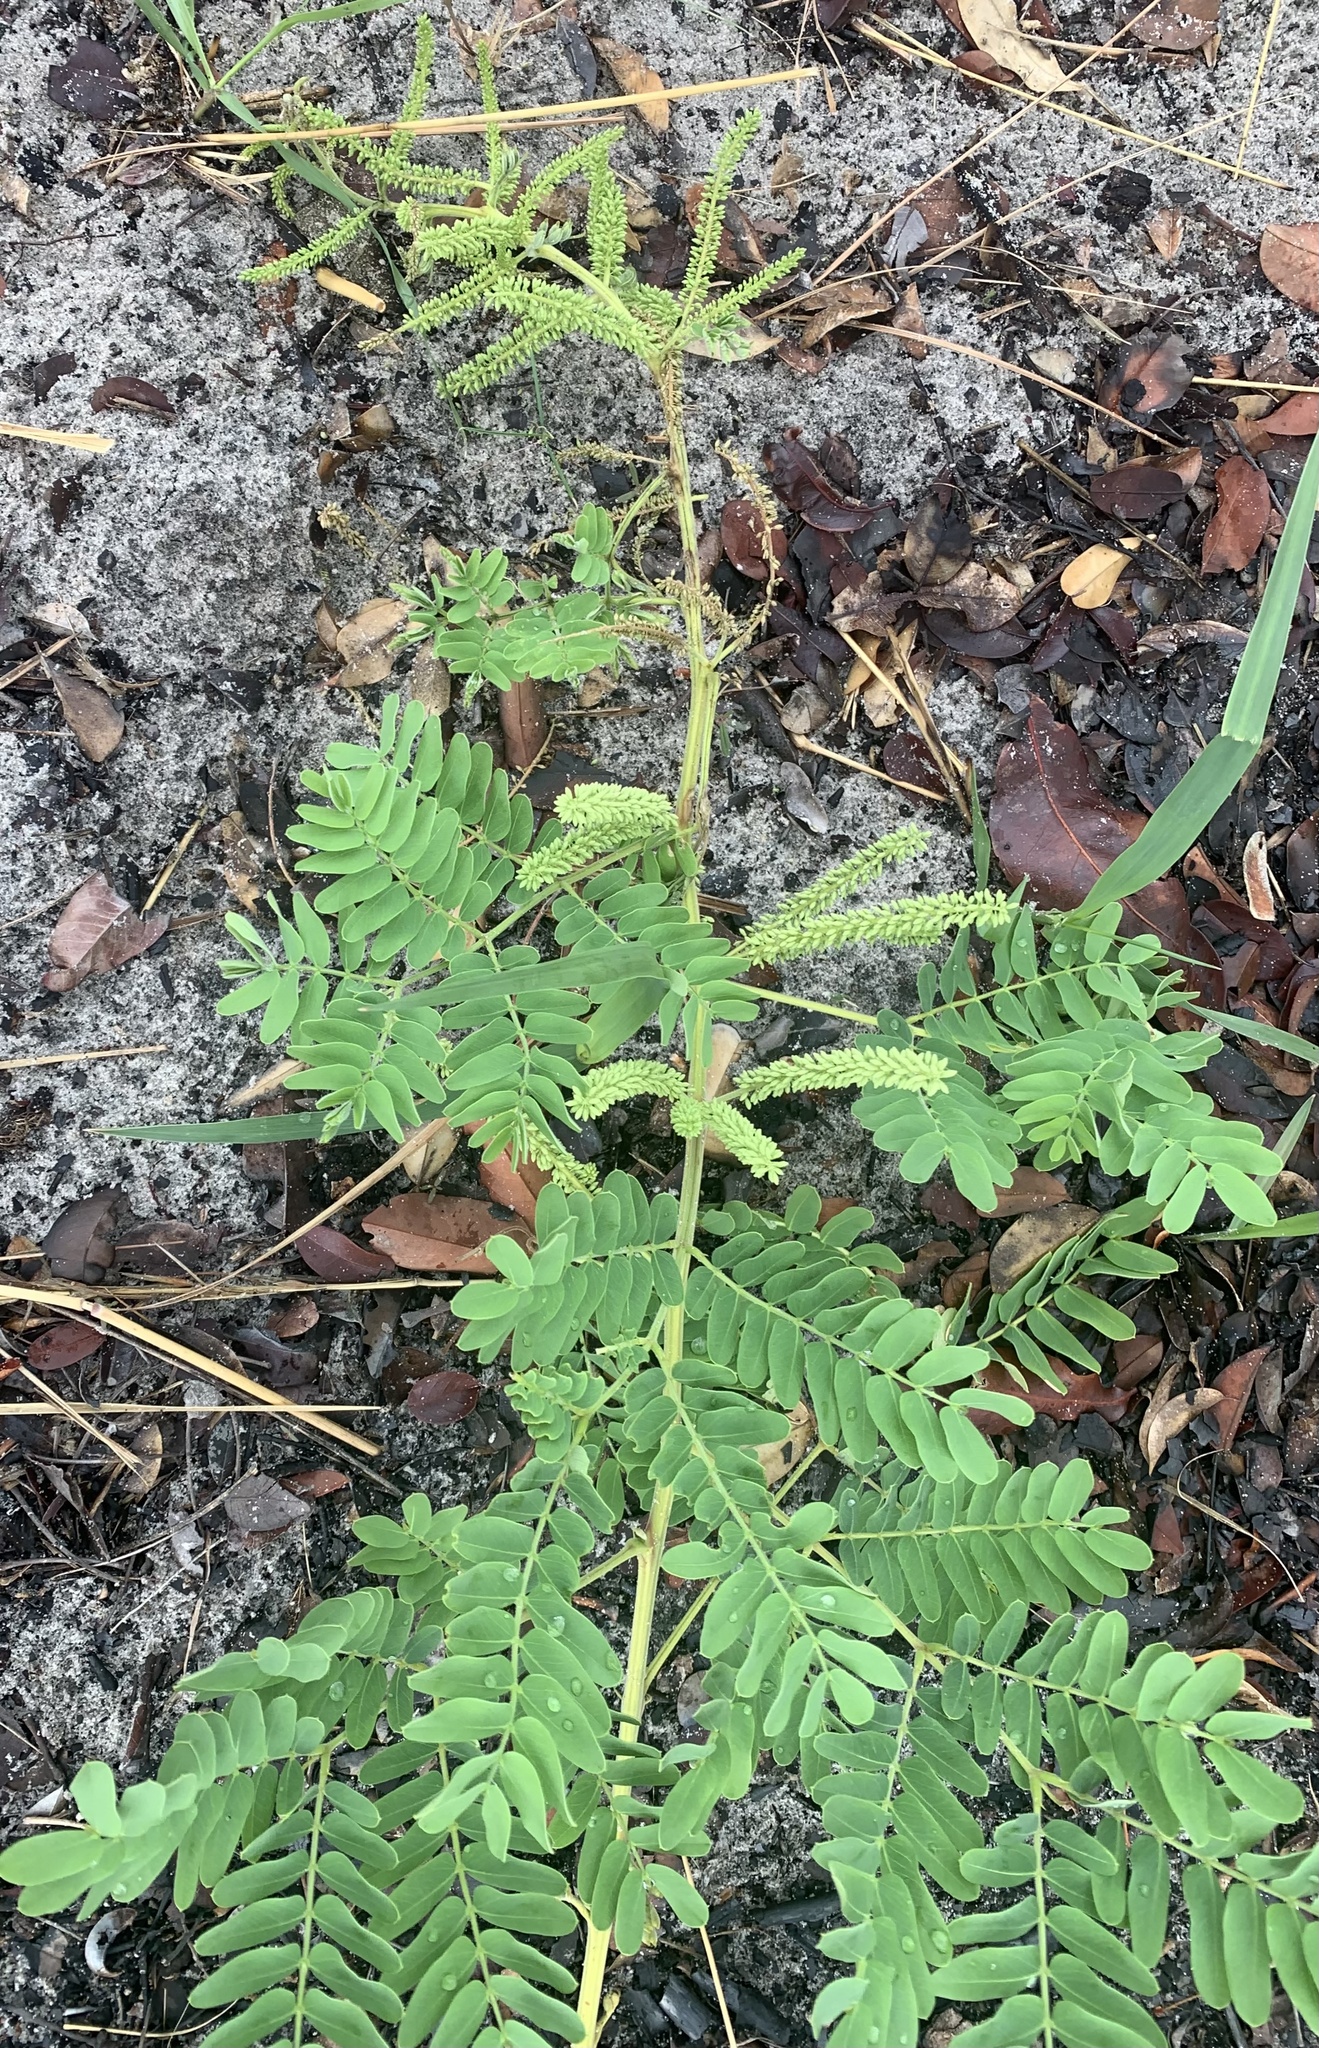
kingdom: Plantae
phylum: Tracheophyta
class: Magnoliopsida
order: Fabales
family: Fabaceae
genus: Abrus
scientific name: Abrus precatorius
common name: Rosarypea
